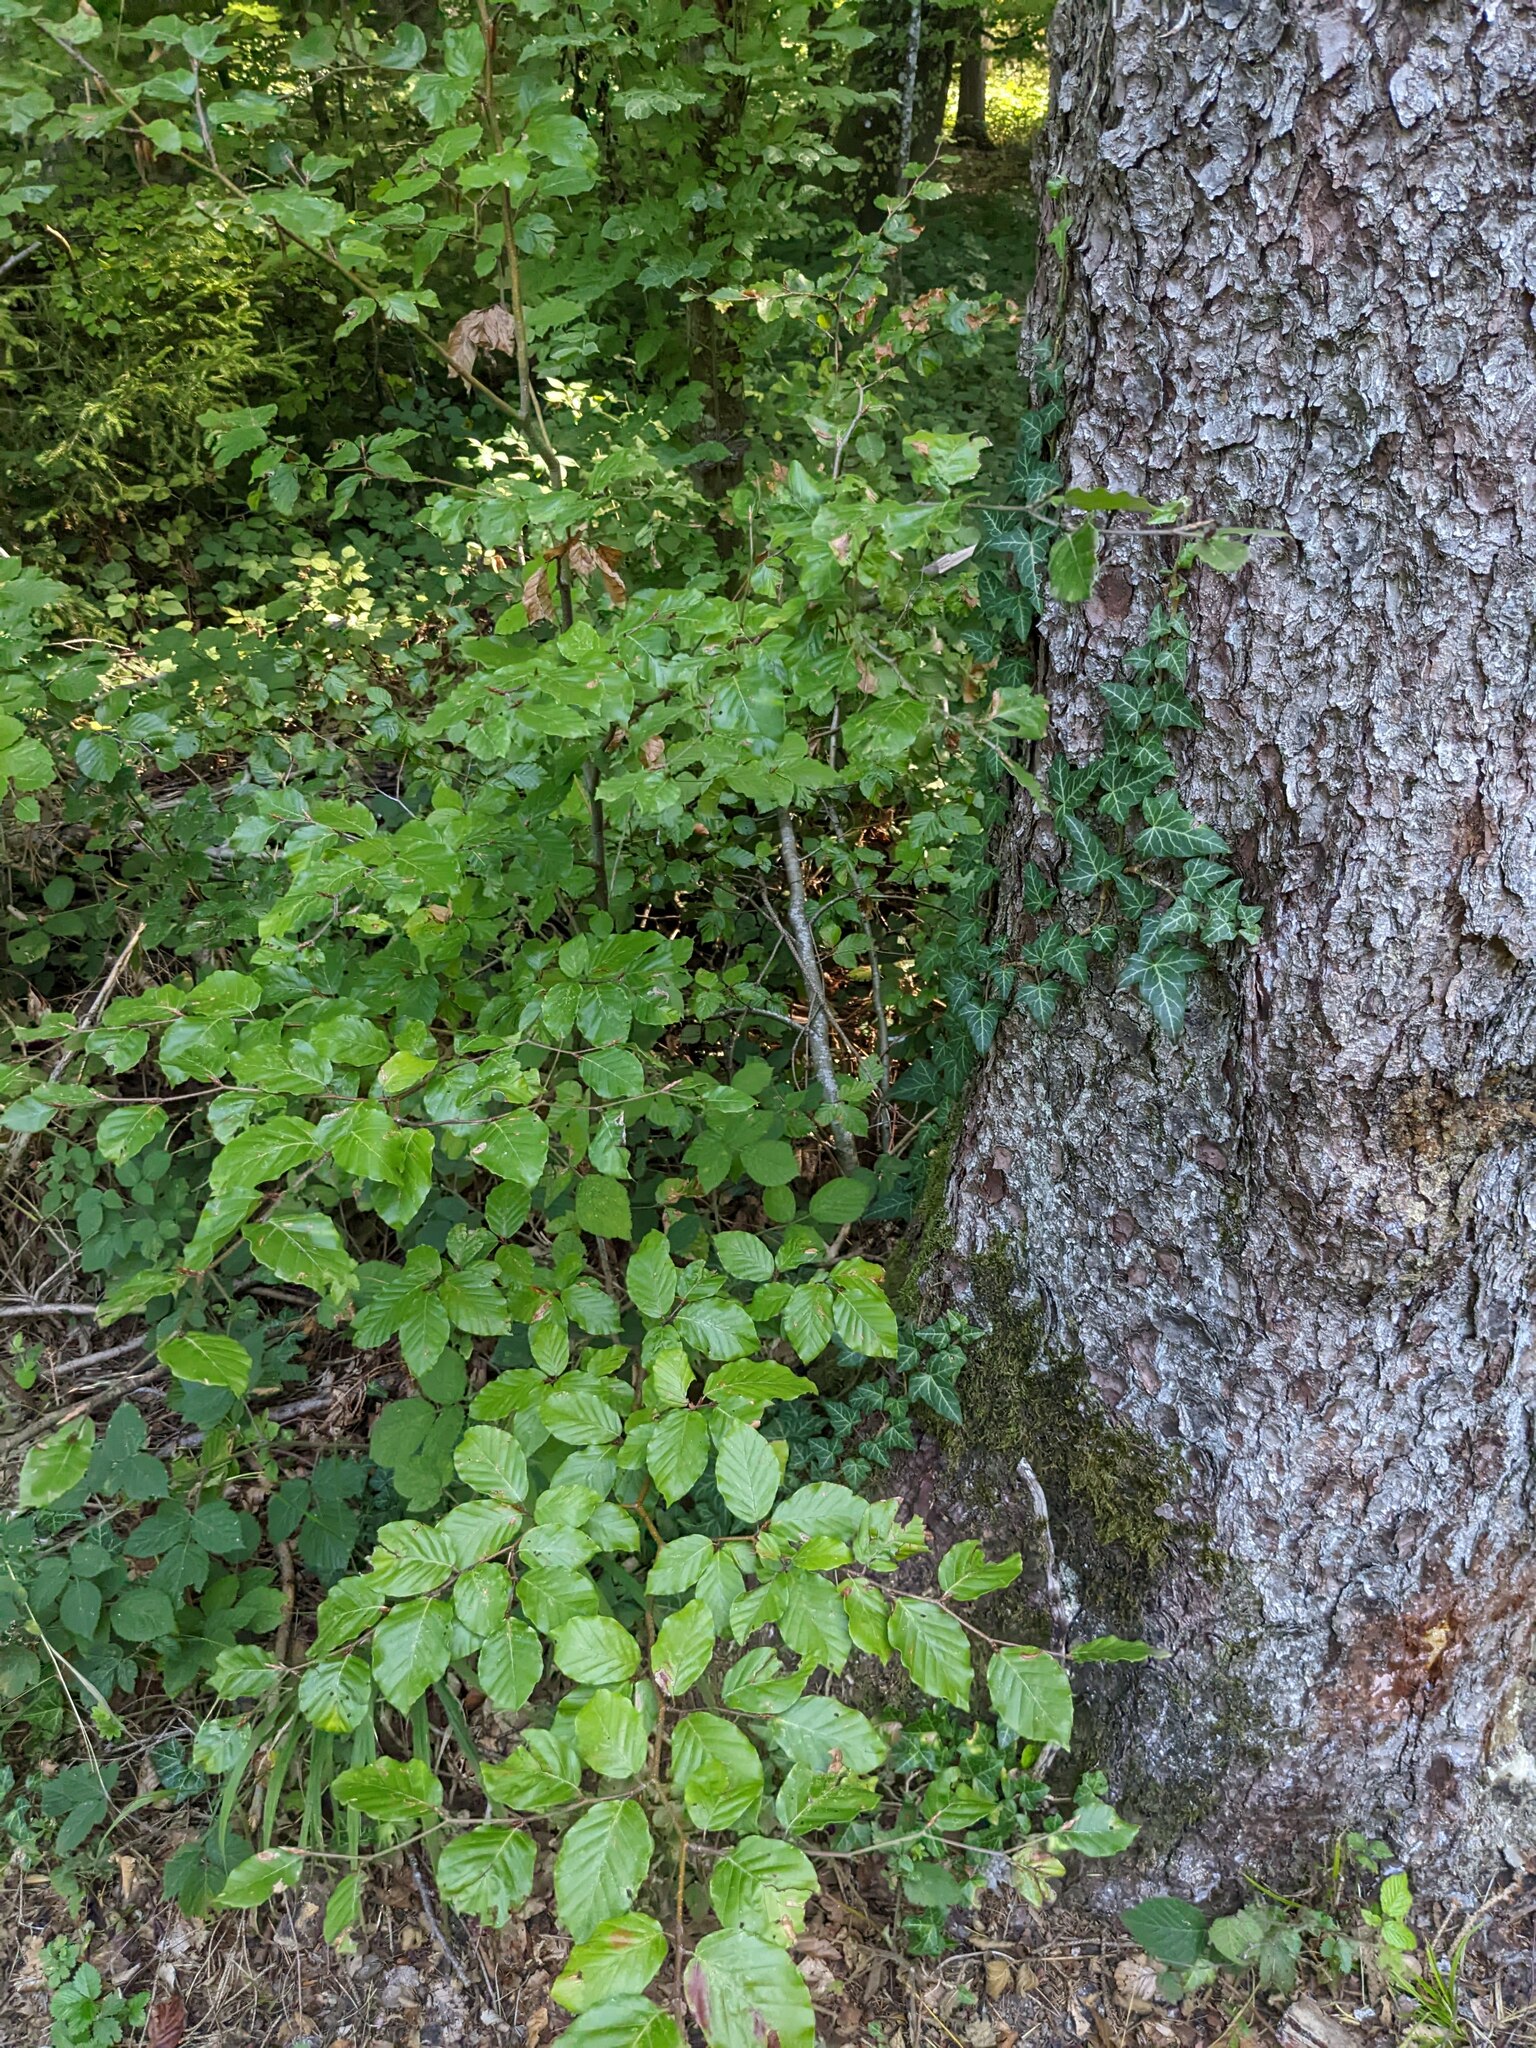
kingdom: Plantae
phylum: Tracheophyta
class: Magnoliopsida
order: Apiales
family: Araliaceae
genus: Hedera
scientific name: Hedera helix
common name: Ivy
